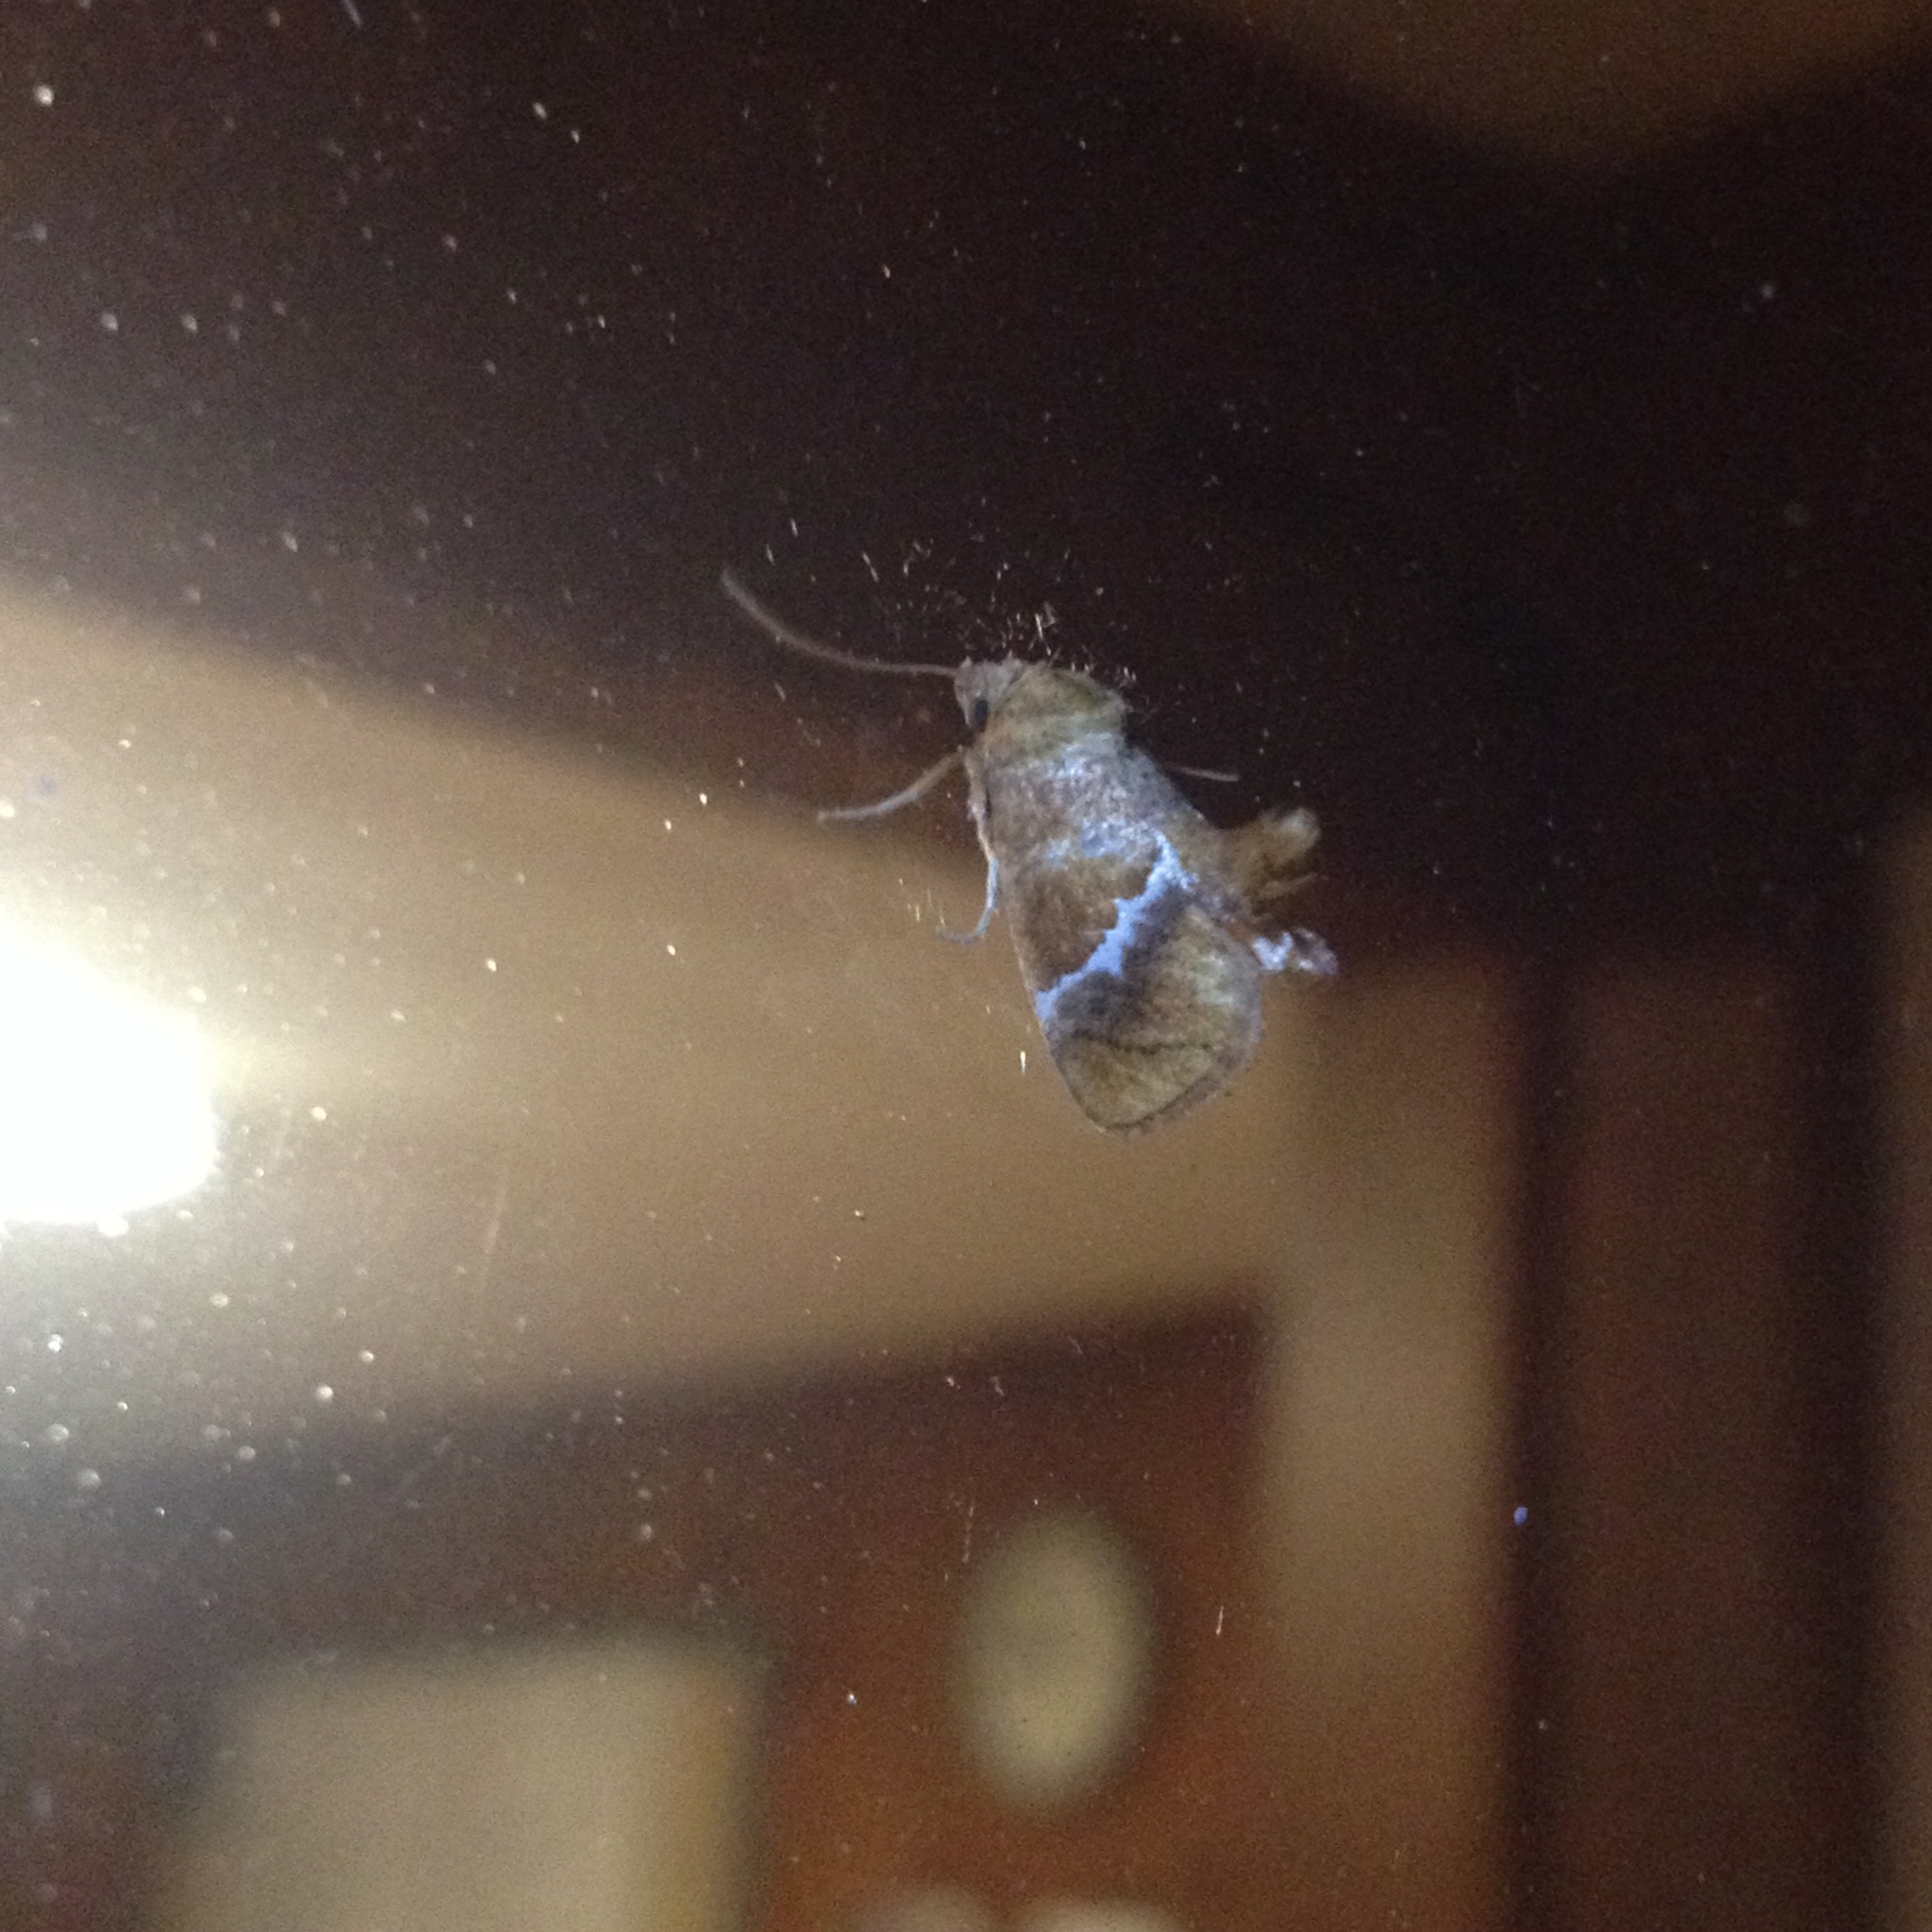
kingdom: Animalia
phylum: Arthropoda
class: Insecta
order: Lepidoptera
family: Limacodidae
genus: Lithacodes
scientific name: Lithacodes fasciola
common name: Yellow-shouldered slug moth
